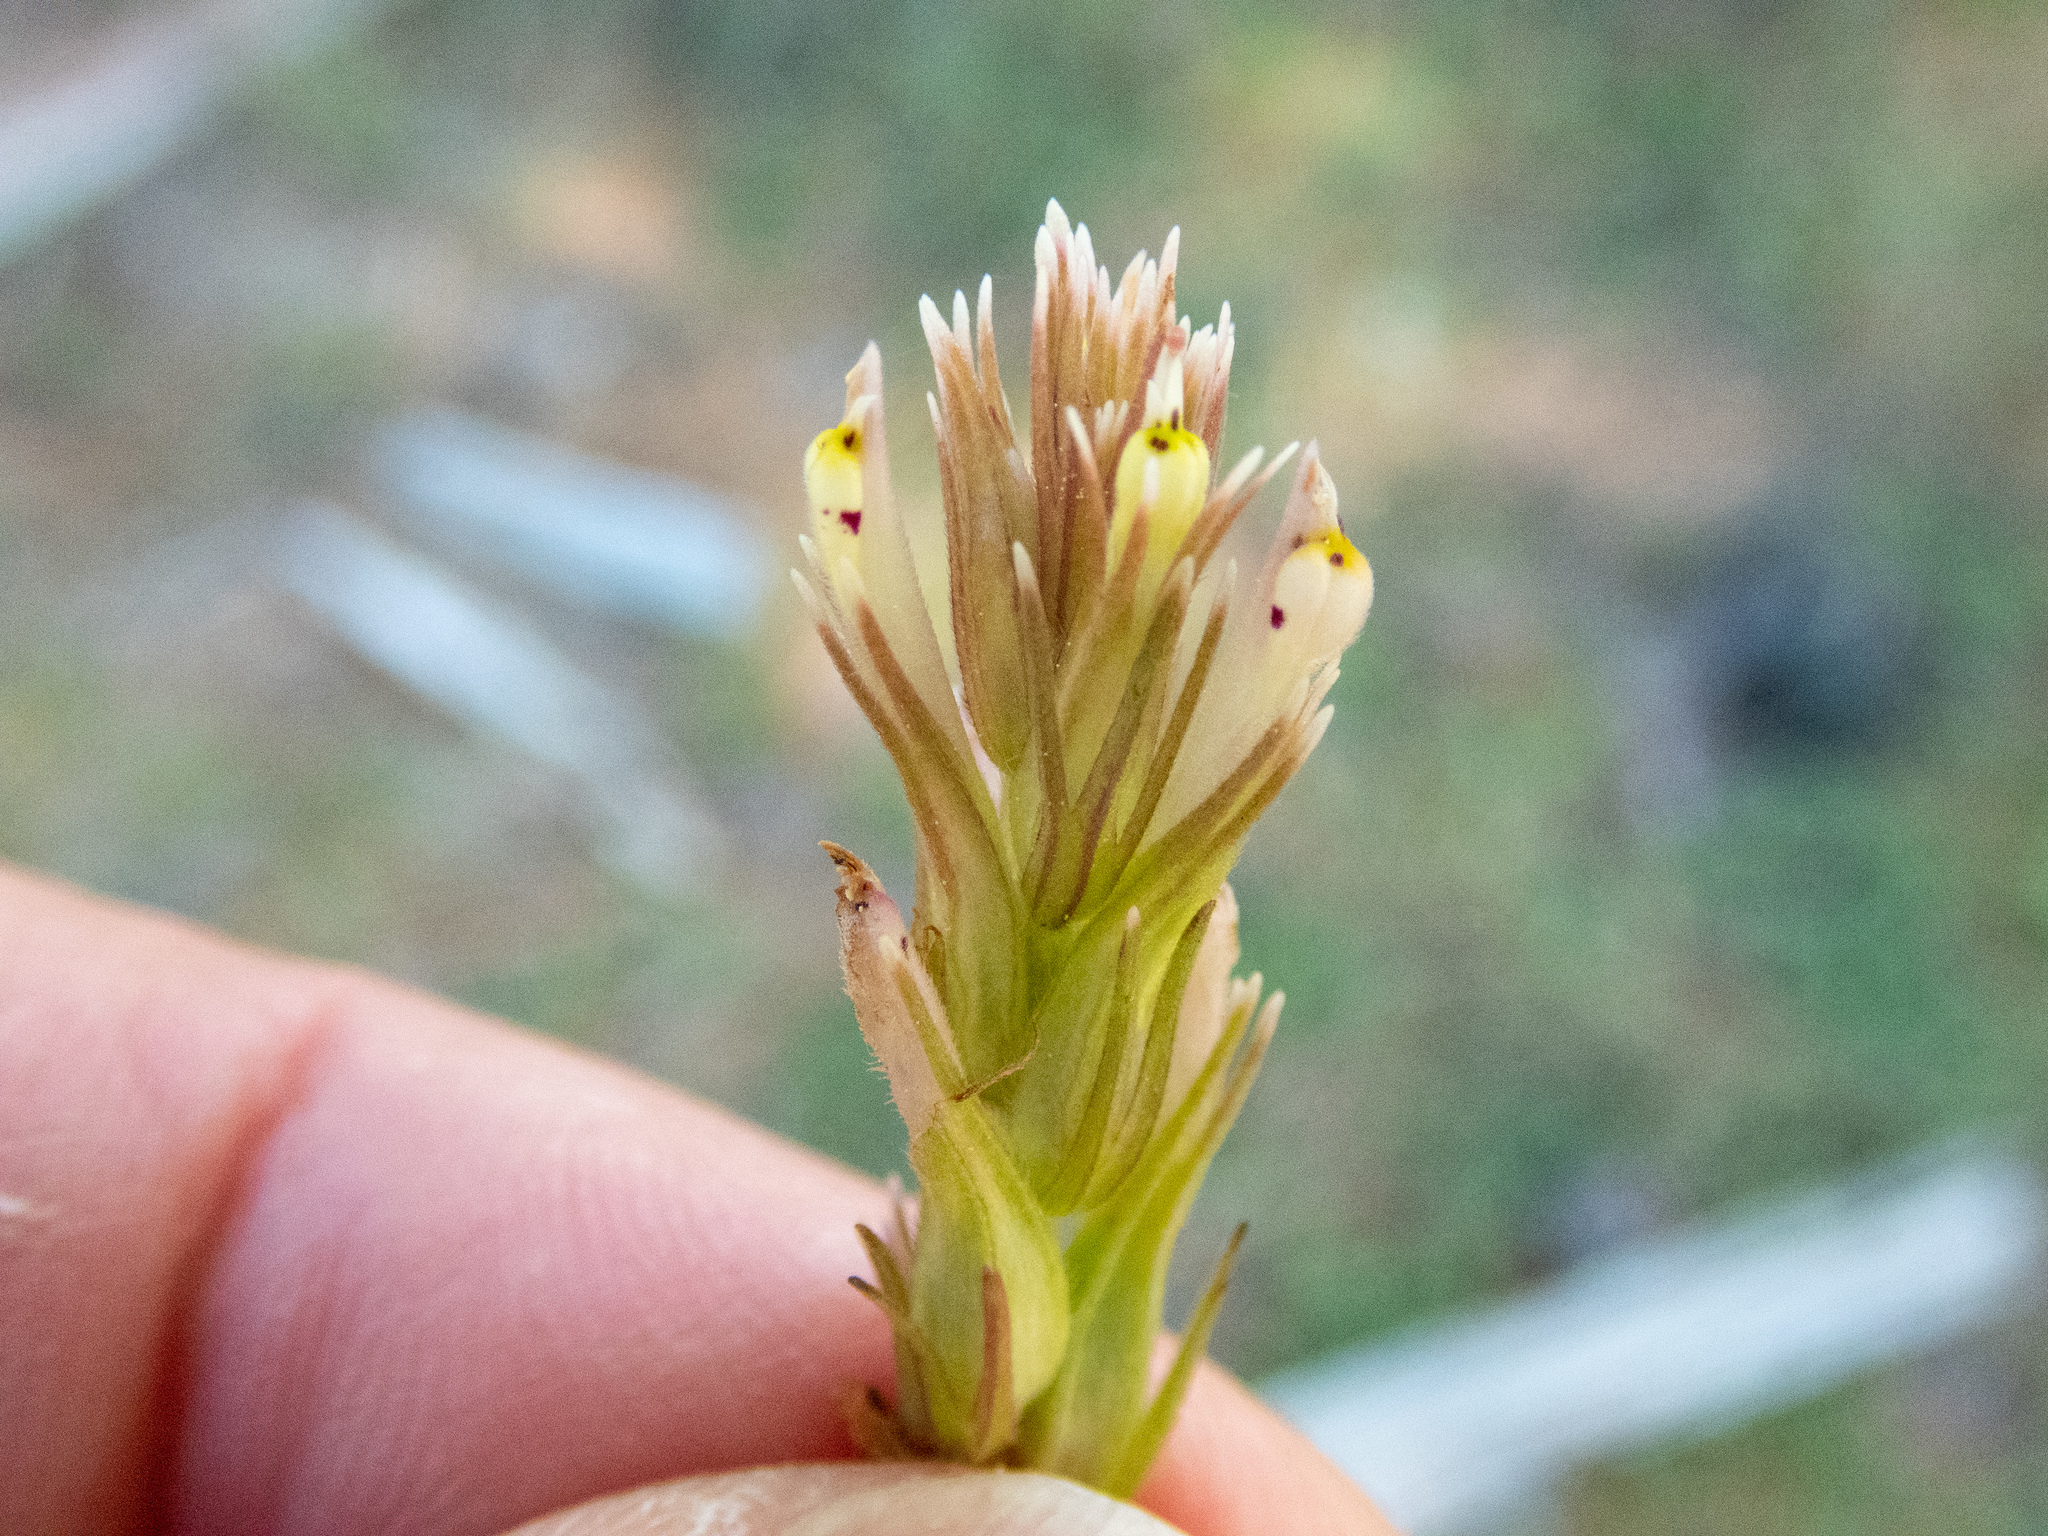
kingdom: Plantae
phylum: Tracheophyta
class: Magnoliopsida
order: Lamiales
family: Orobanchaceae
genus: Castilleja
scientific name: Castilleja attenuata
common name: Valley tassels
